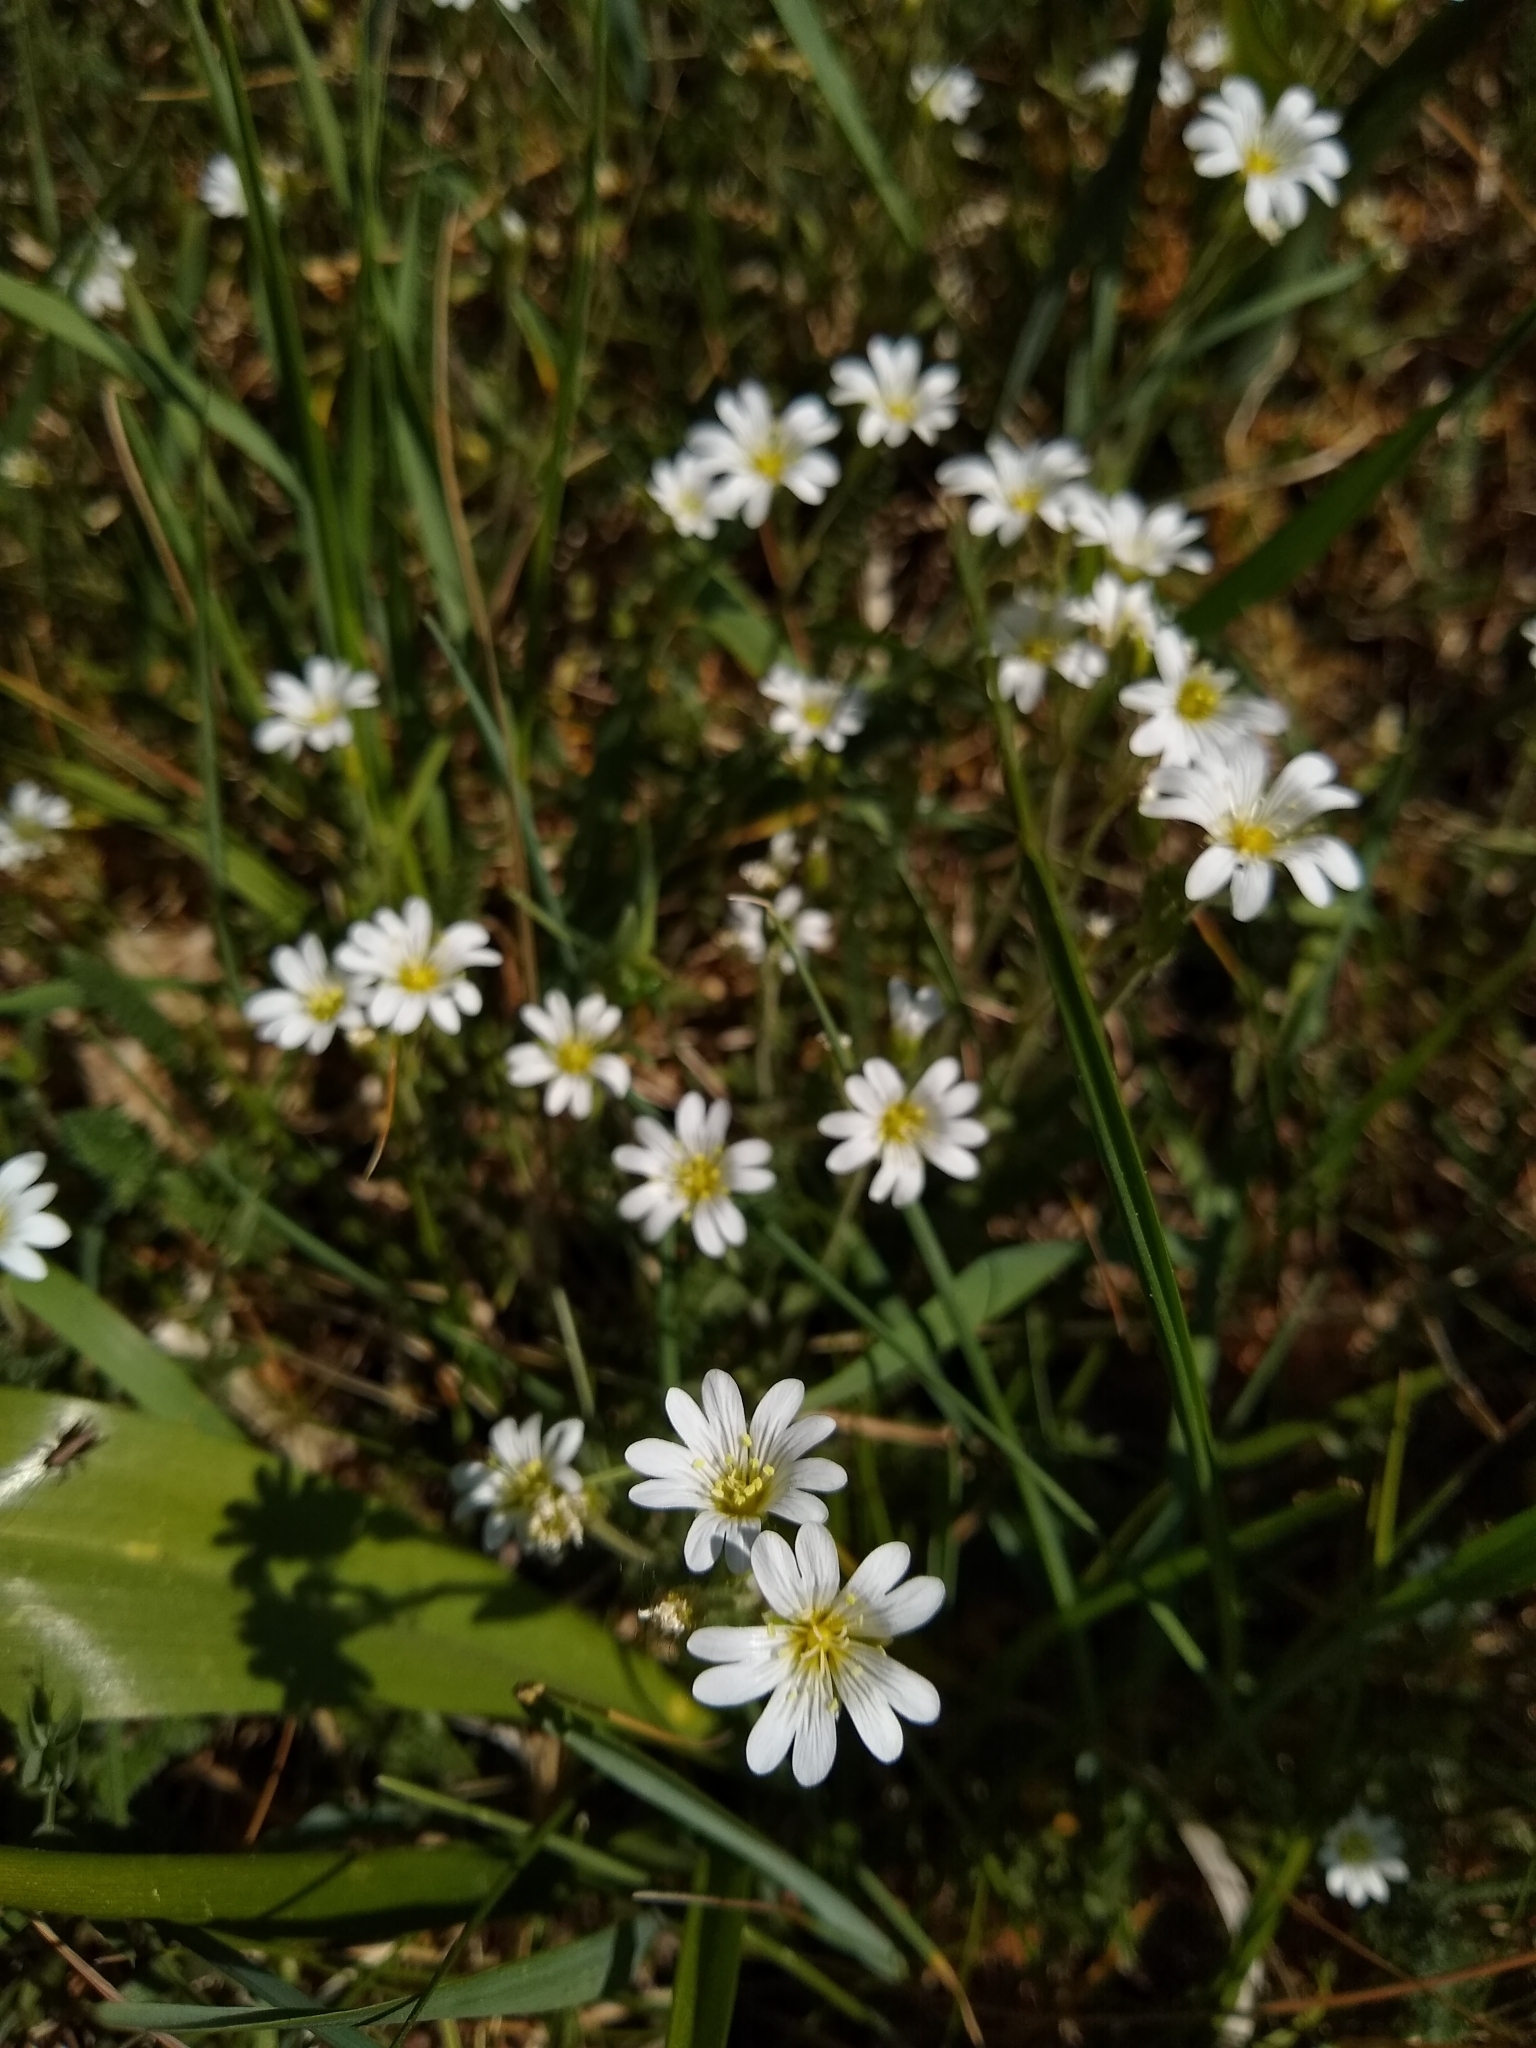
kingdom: Plantae
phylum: Tracheophyta
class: Magnoliopsida
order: Caryophyllales
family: Caryophyllaceae
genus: Cerastium
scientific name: Cerastium arvense
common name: Field mouse-ear
